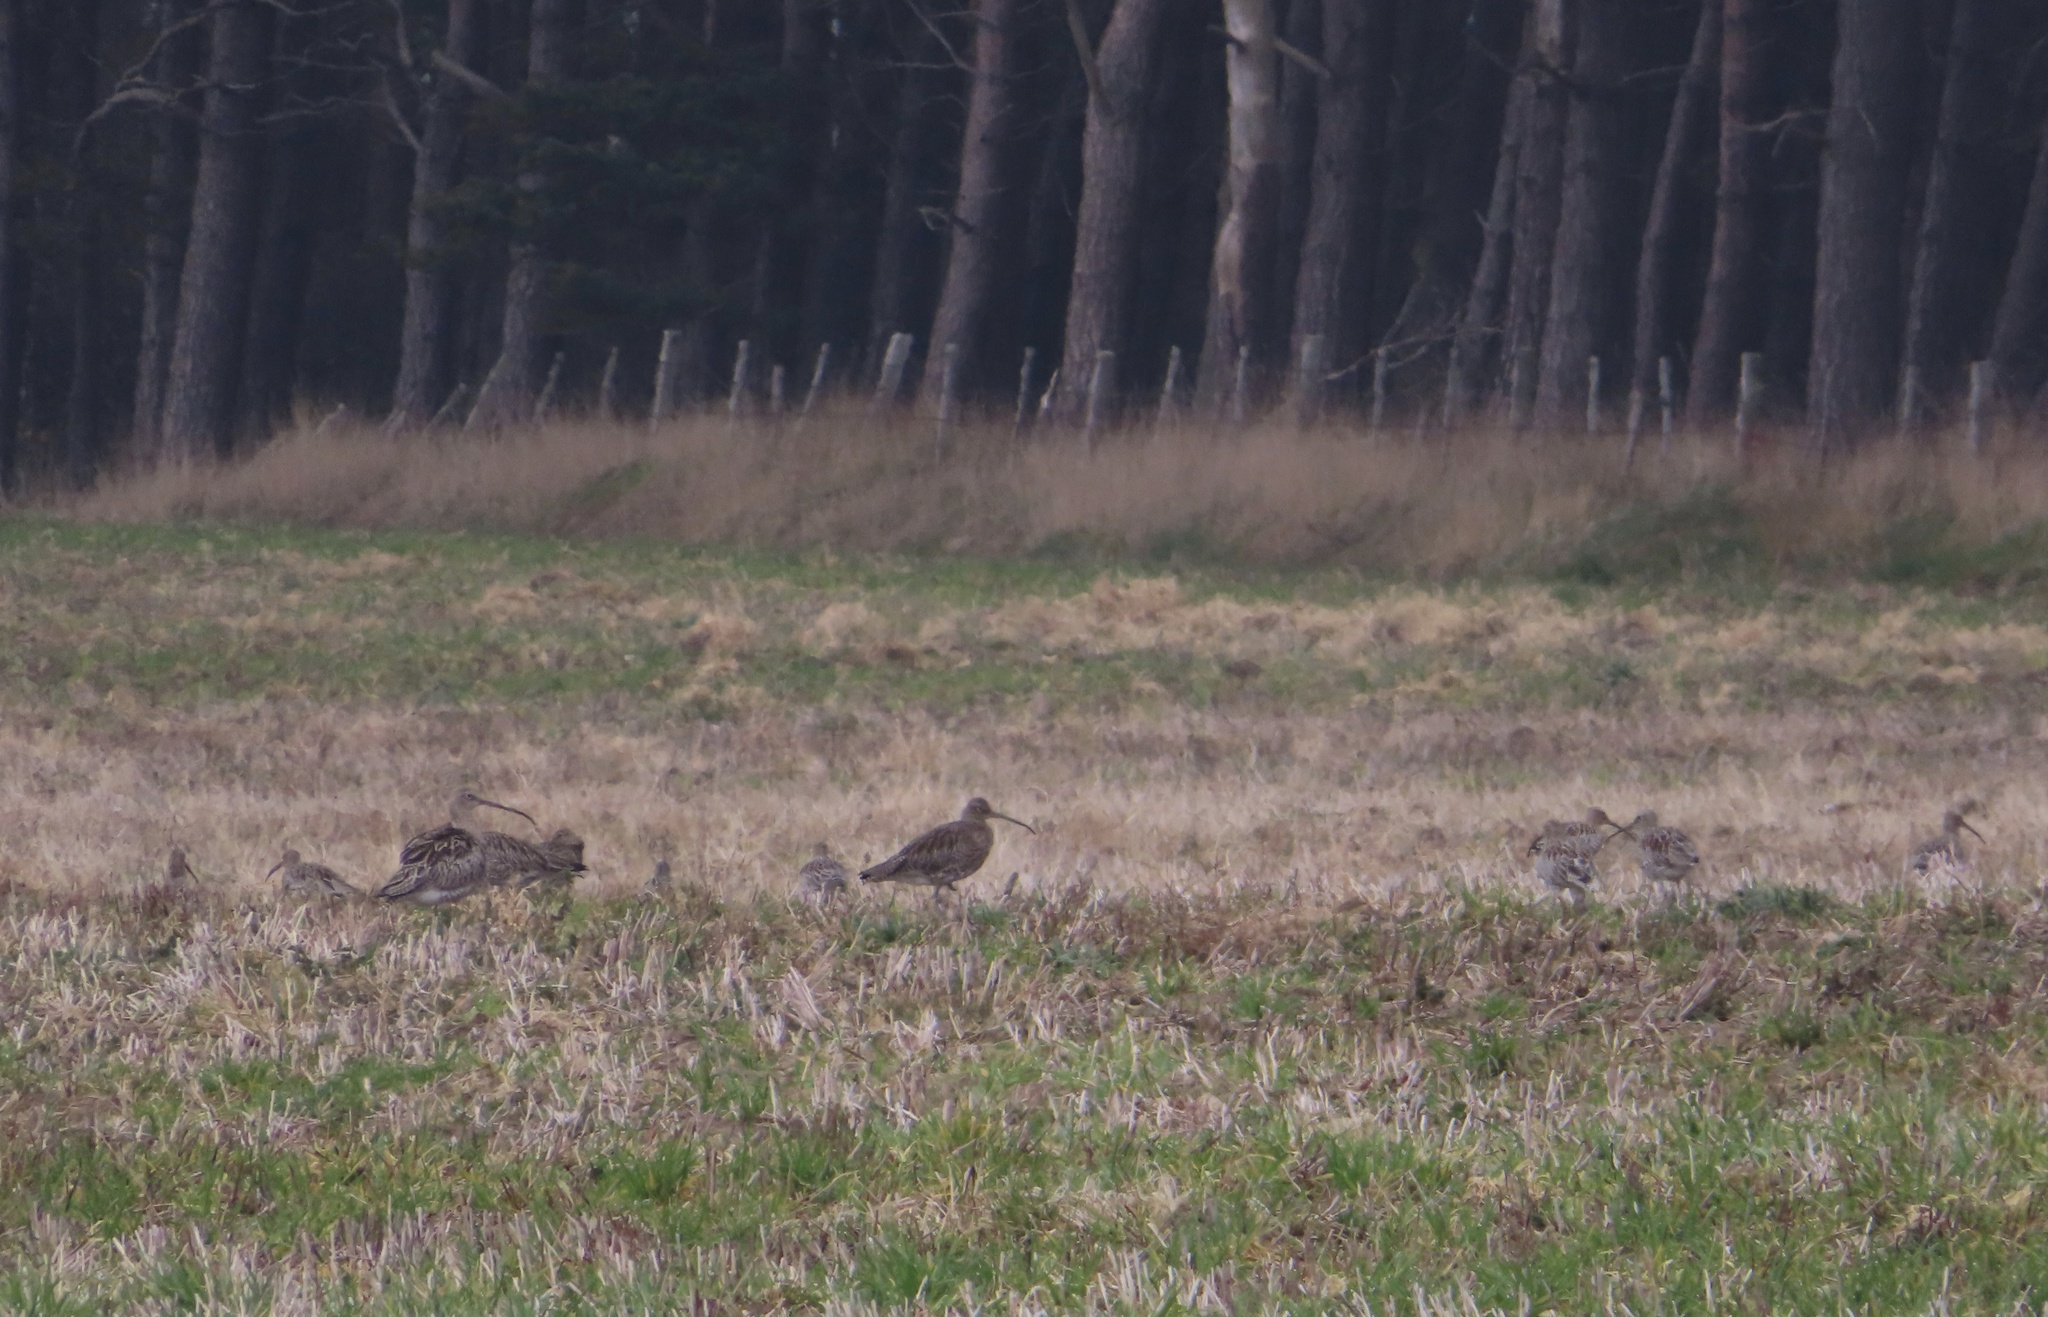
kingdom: Animalia
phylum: Chordata
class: Aves
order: Charadriiformes
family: Scolopacidae
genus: Numenius
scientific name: Numenius arquata
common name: Eurasian curlew
